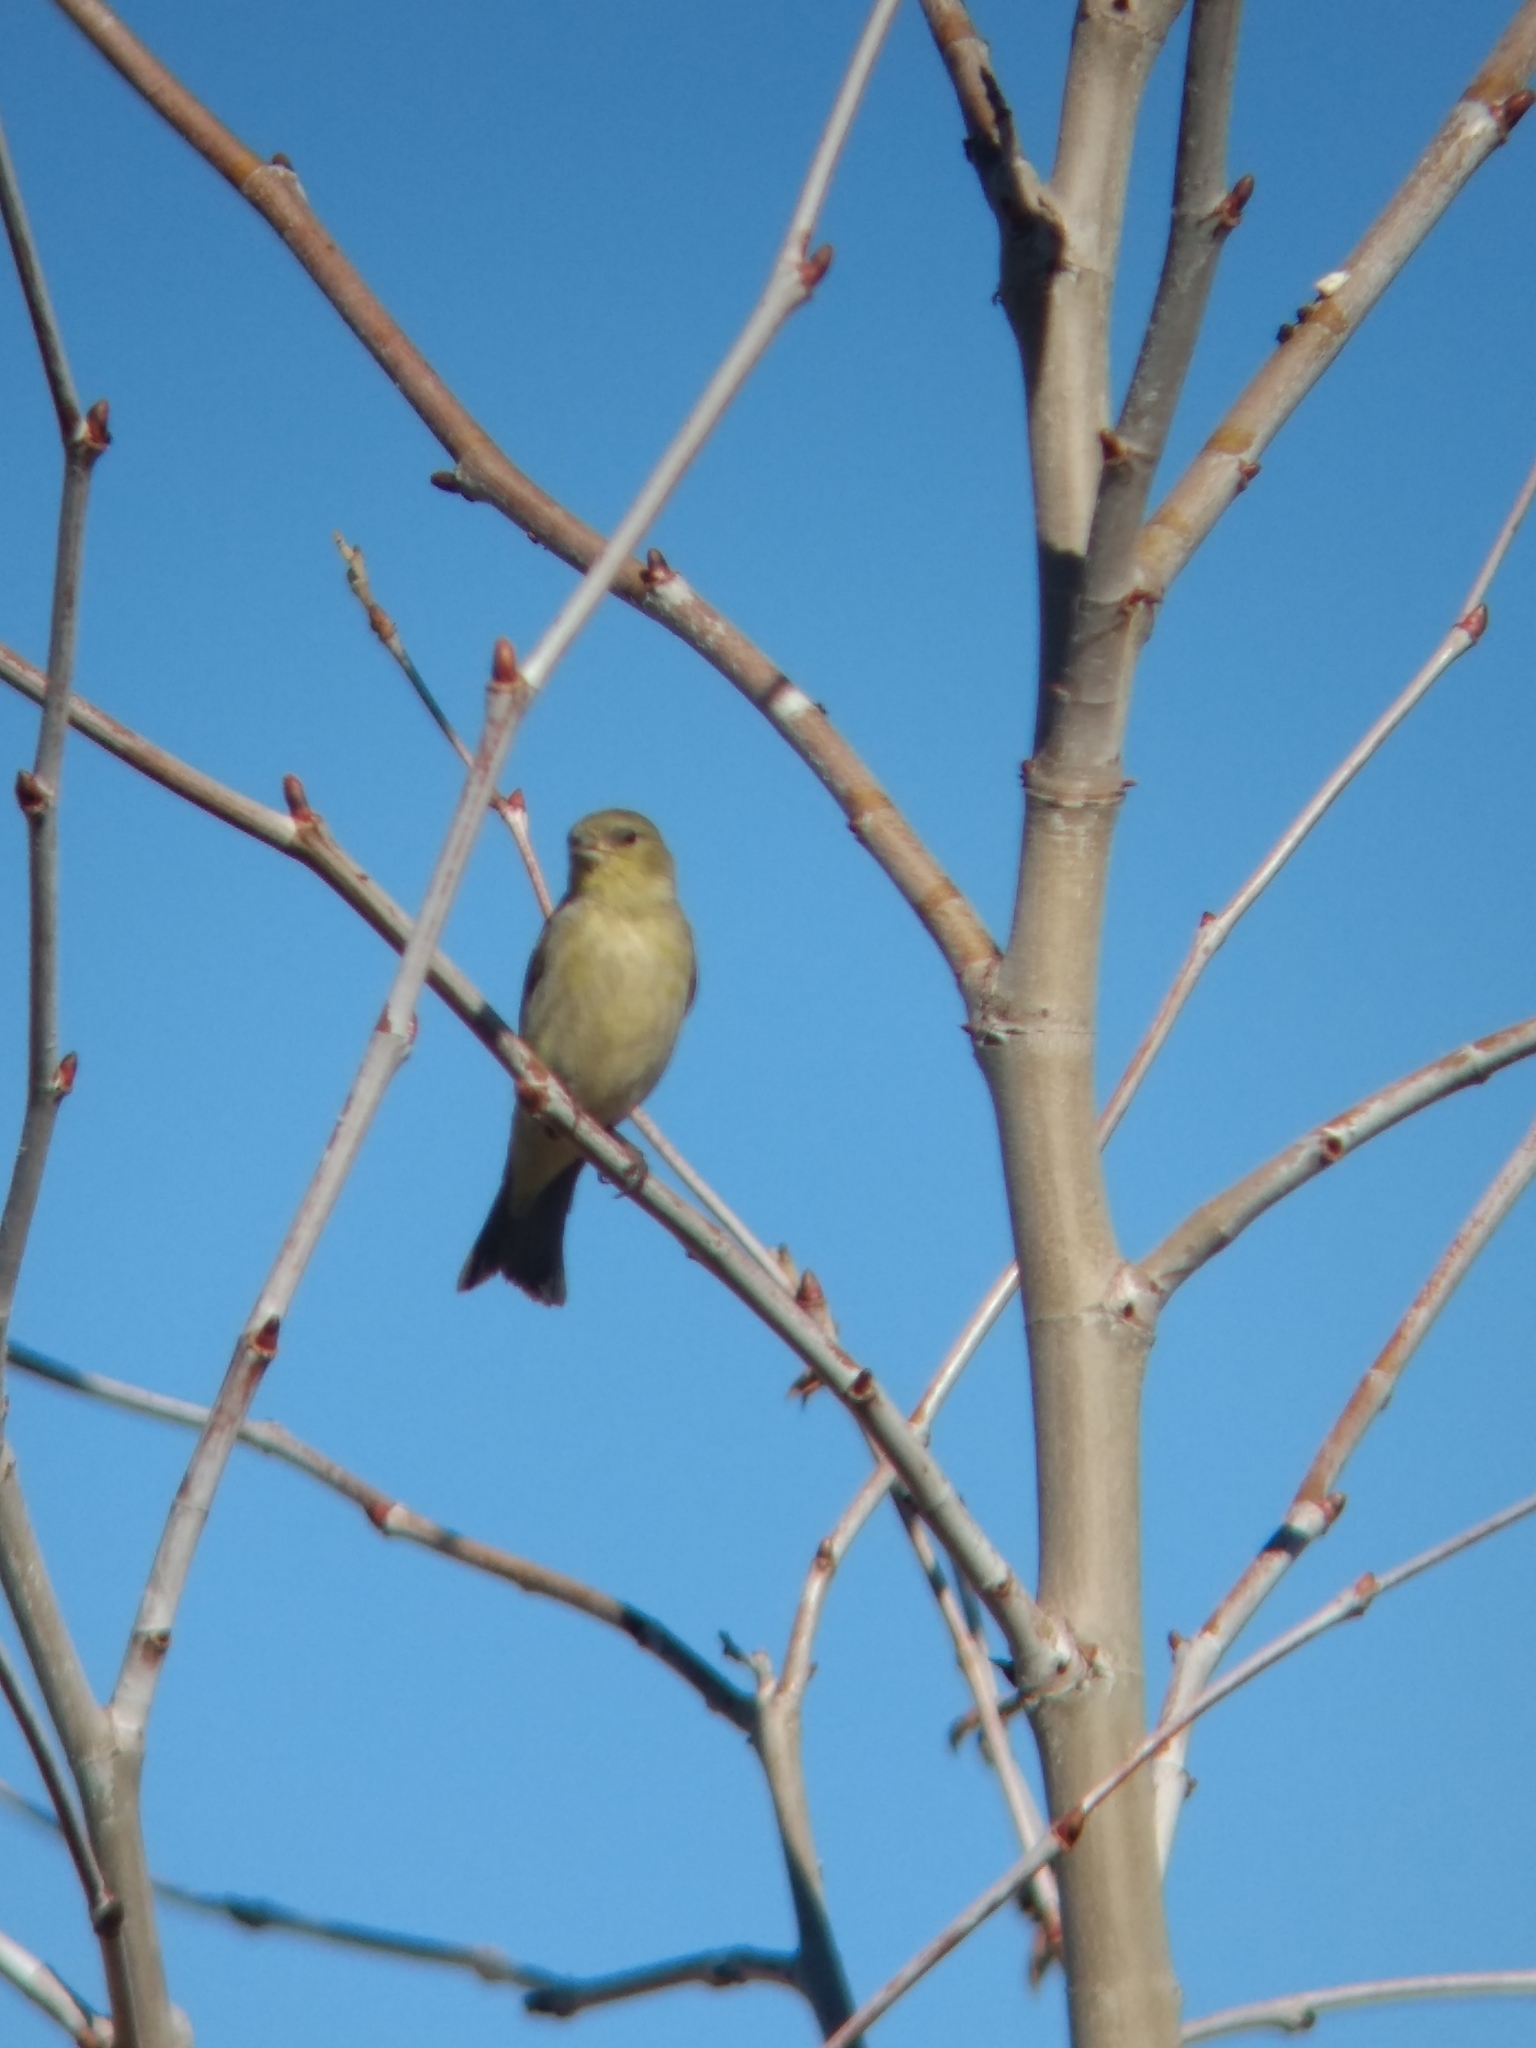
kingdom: Animalia
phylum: Chordata
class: Aves
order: Passeriformes
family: Fringillidae
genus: Spinus
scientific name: Spinus psaltria
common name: Lesser goldfinch
